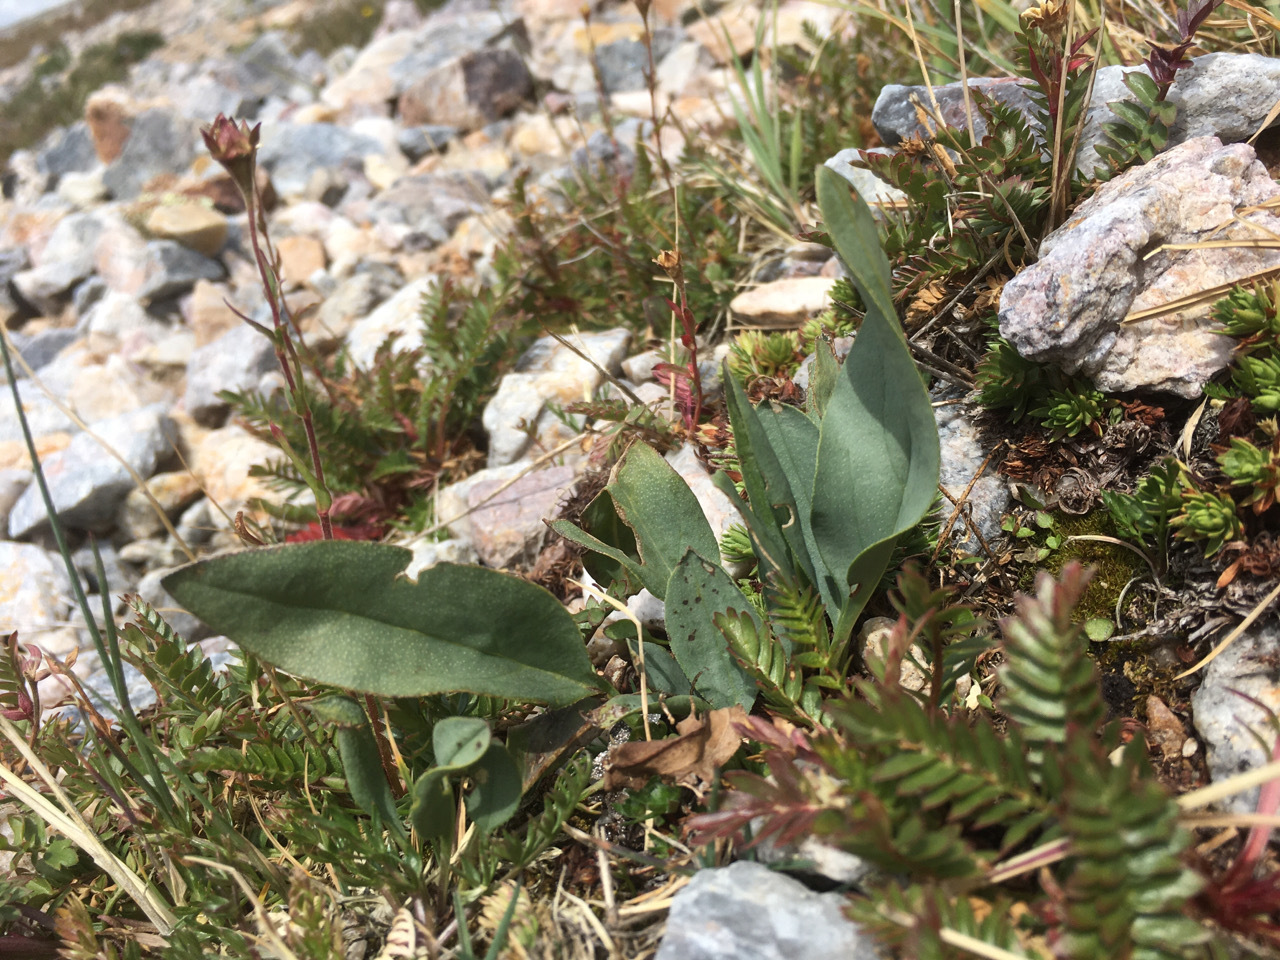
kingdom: Plantae
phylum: Tracheophyta
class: Magnoliopsida
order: Boraginales
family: Boraginaceae
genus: Mertensia
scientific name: Mertensia ovata
